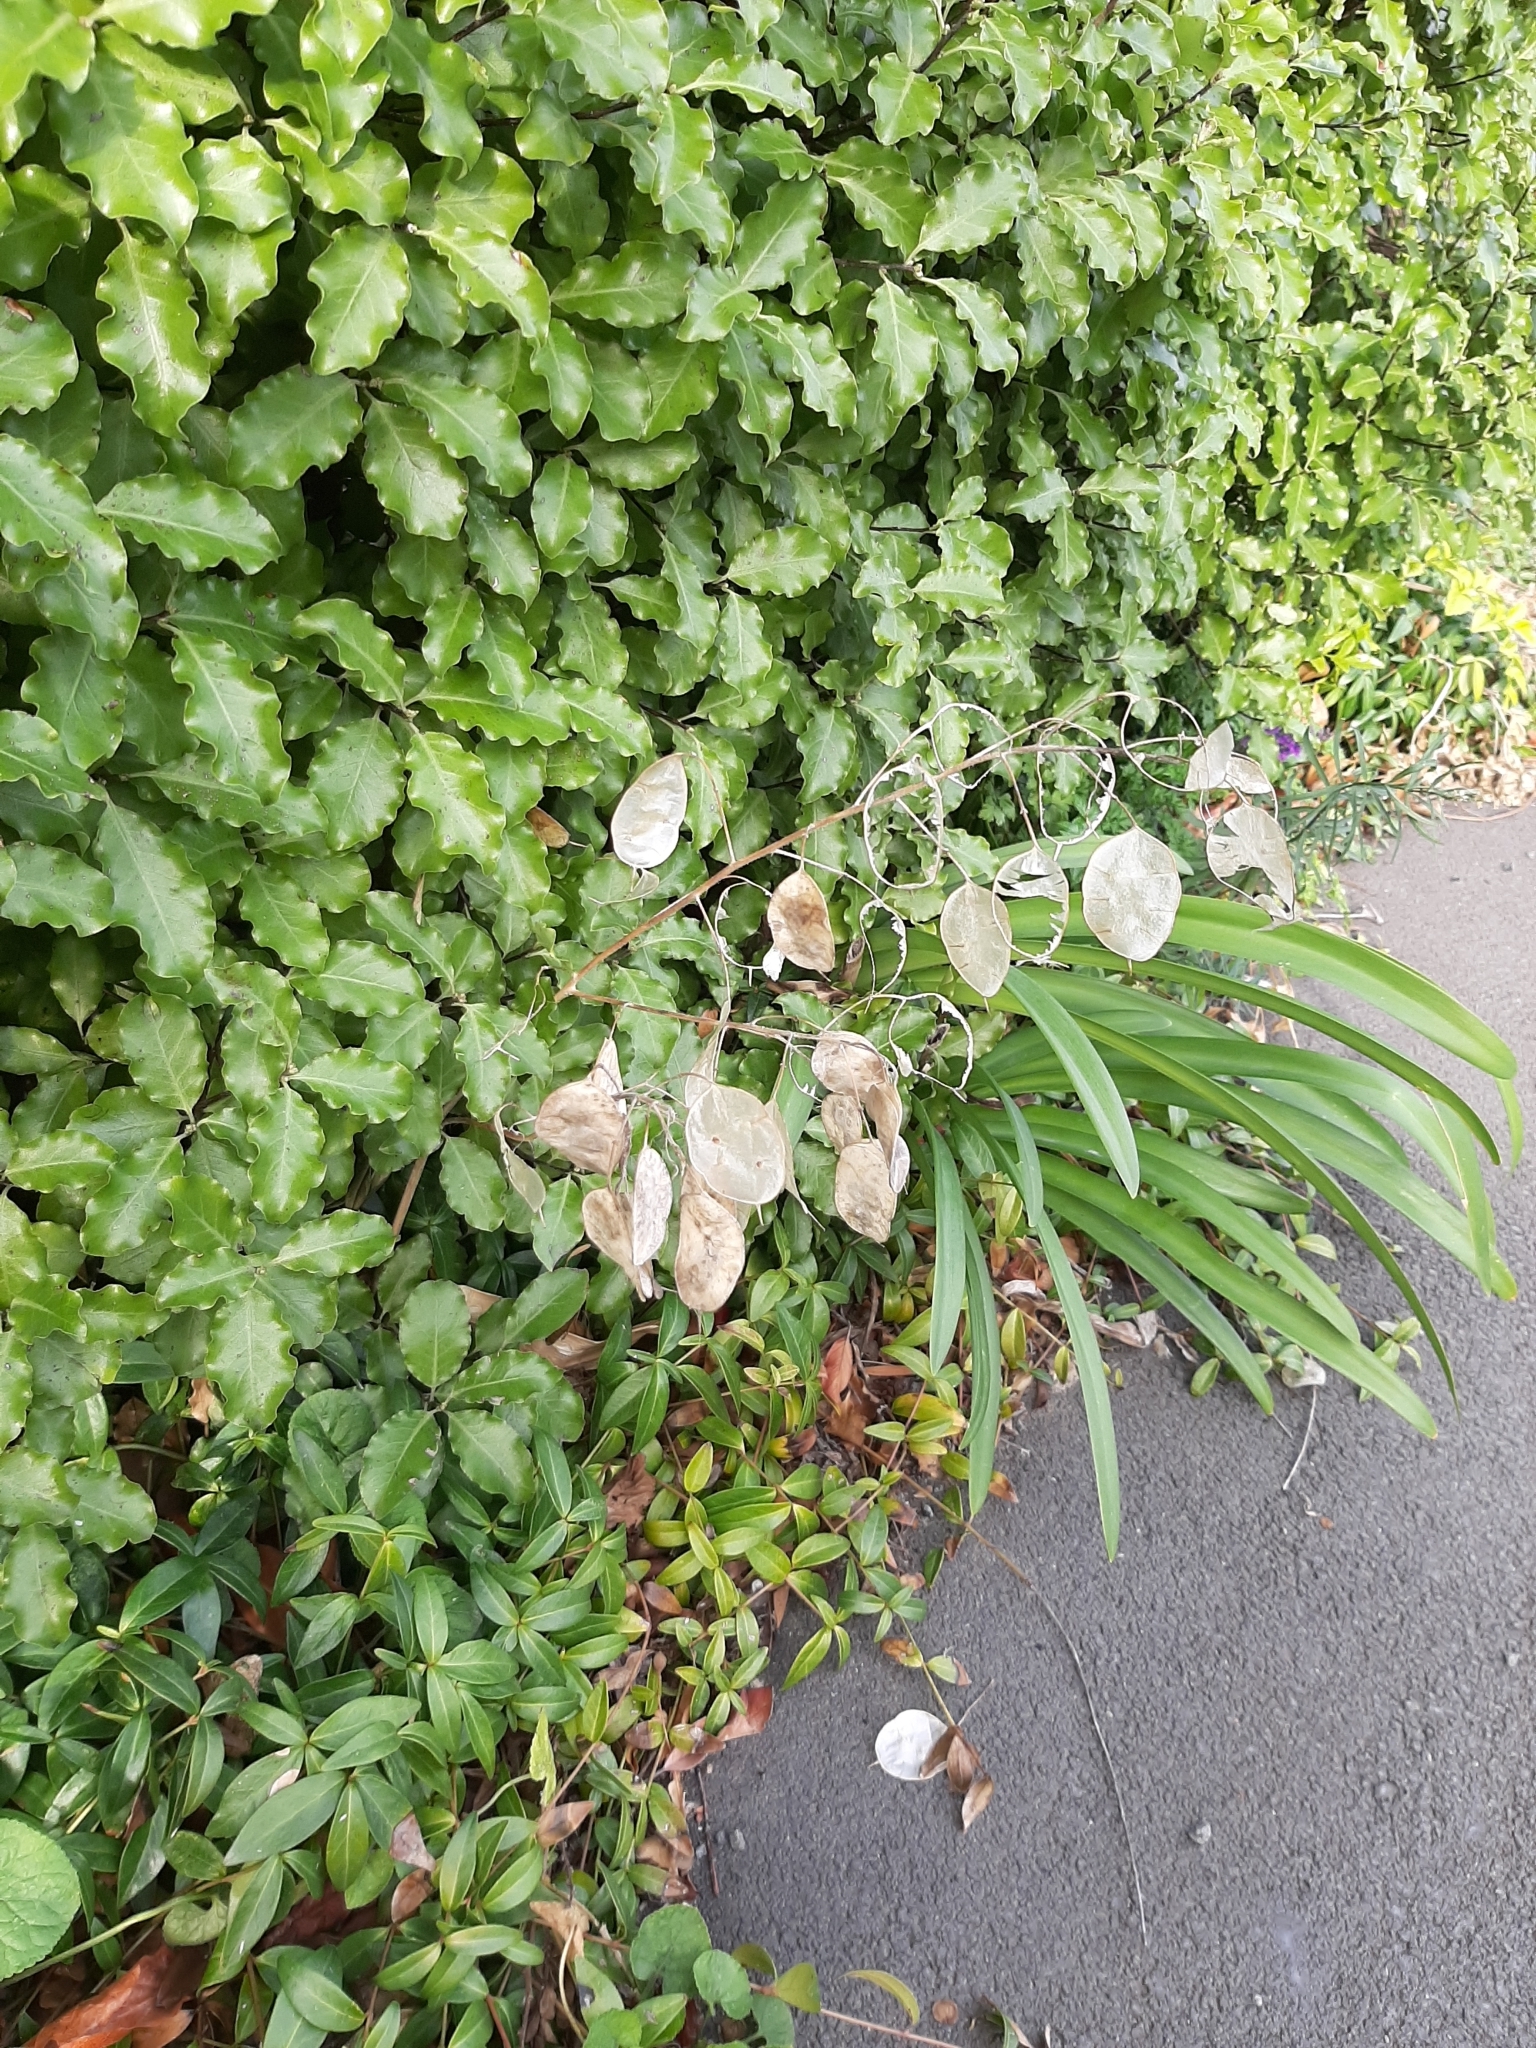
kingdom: Plantae
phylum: Tracheophyta
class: Magnoliopsida
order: Brassicales
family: Brassicaceae
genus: Lunaria
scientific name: Lunaria annua
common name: Honesty
